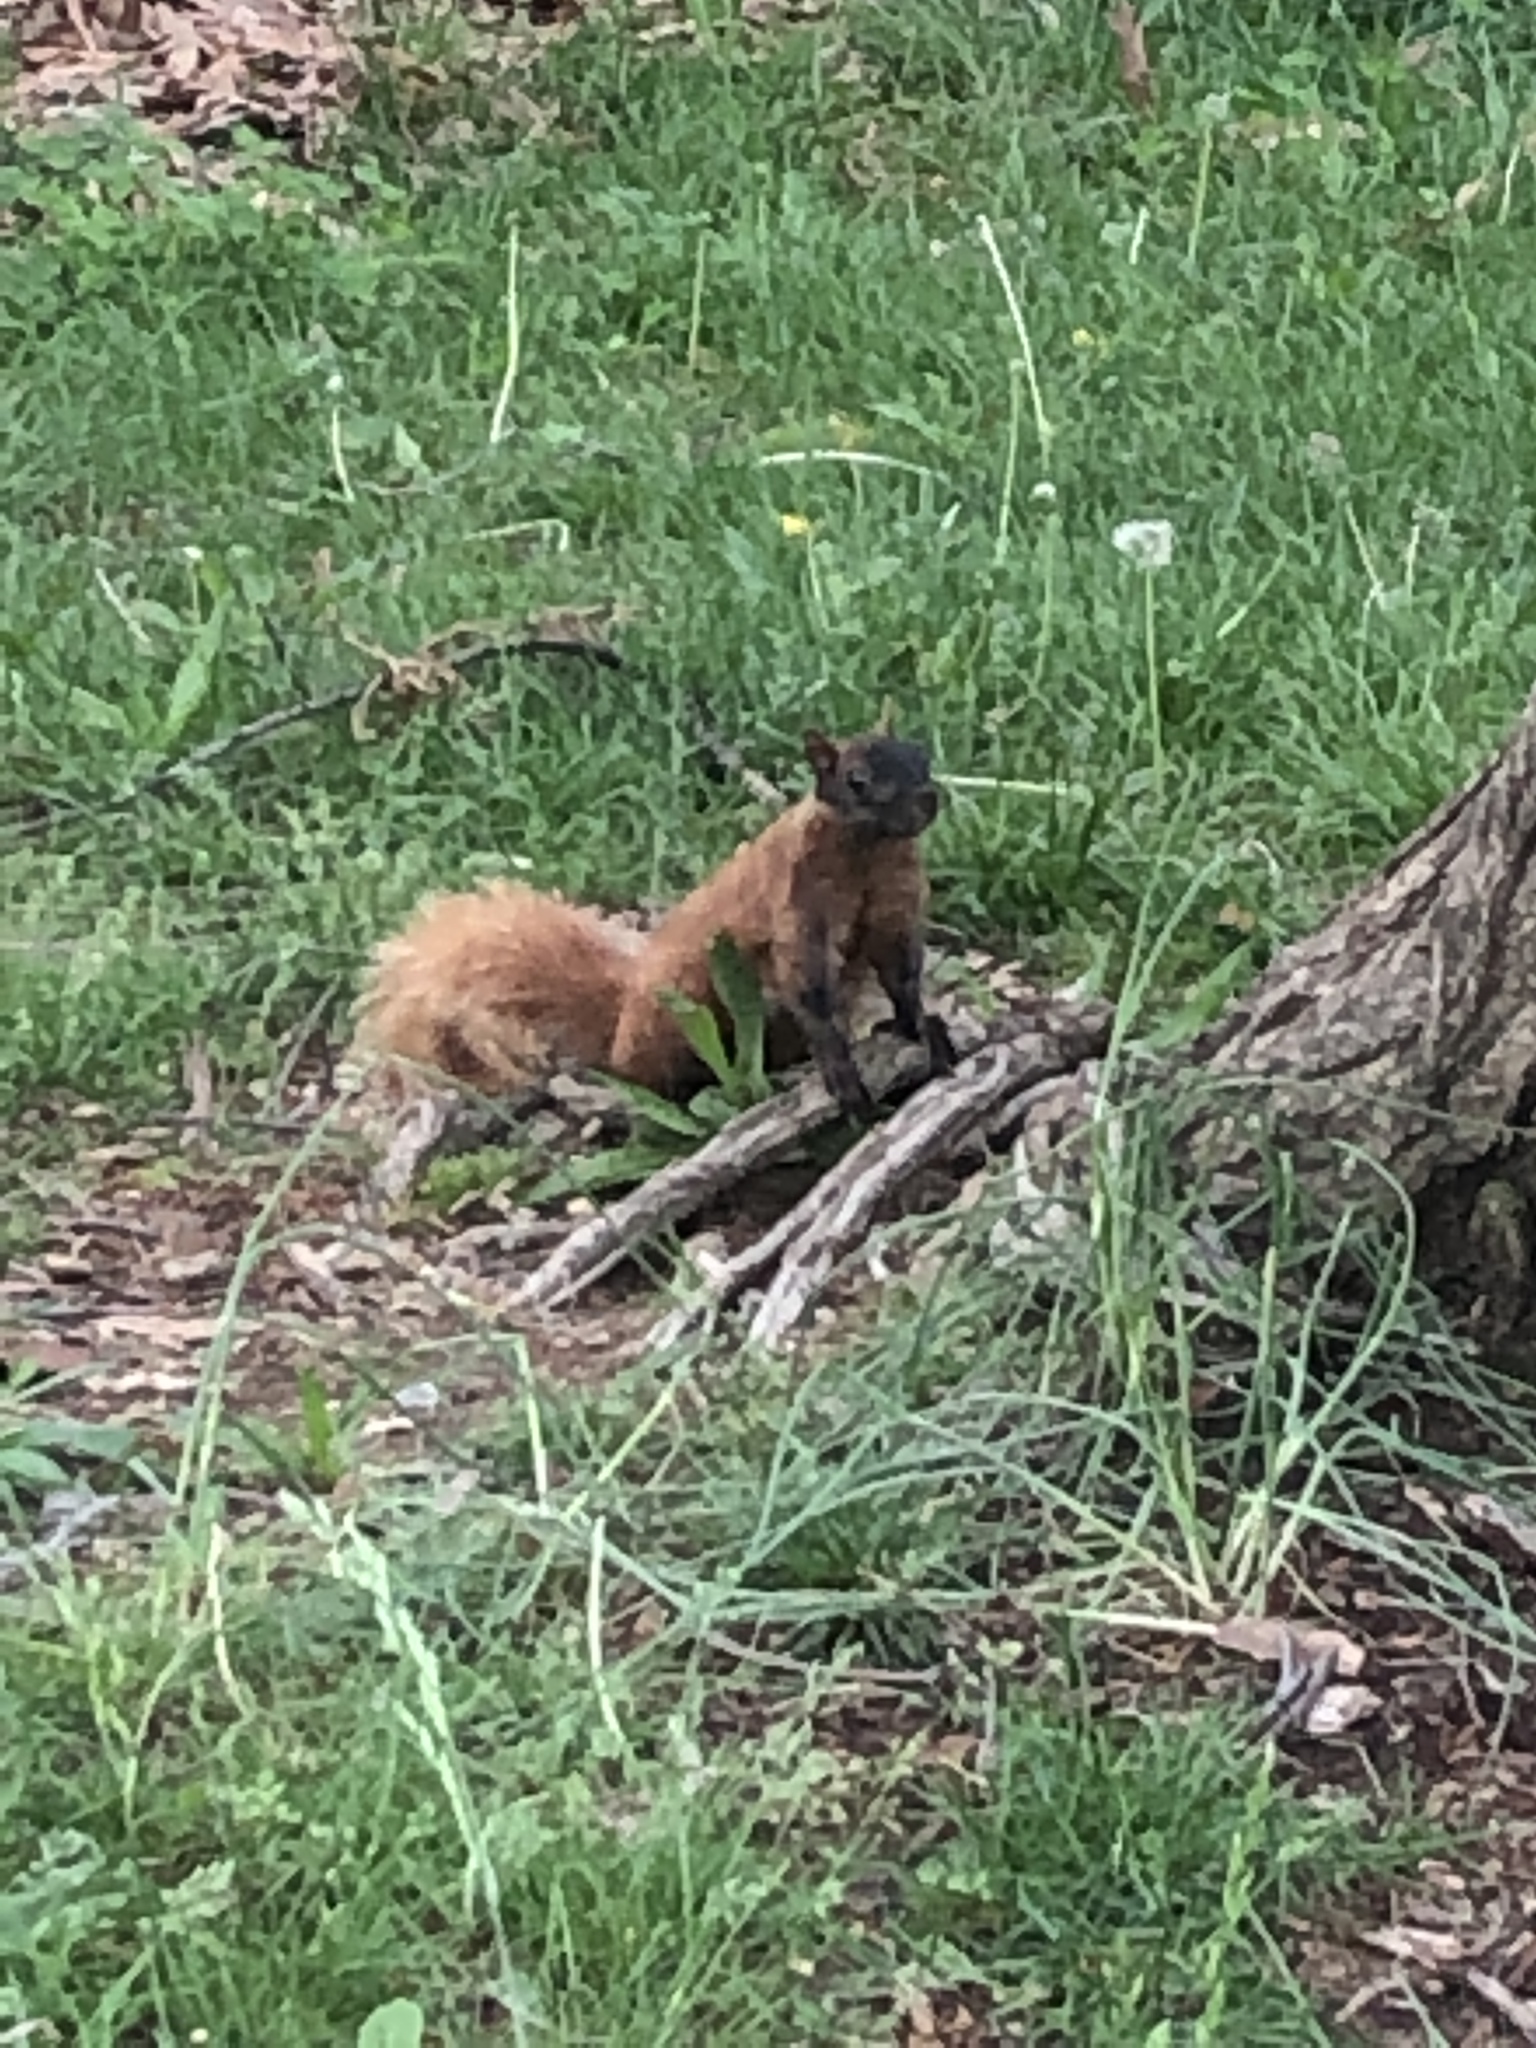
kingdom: Animalia
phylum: Chordata
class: Mammalia
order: Rodentia
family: Sciuridae
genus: Sciurus
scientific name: Sciurus carolinensis
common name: Eastern gray squirrel
